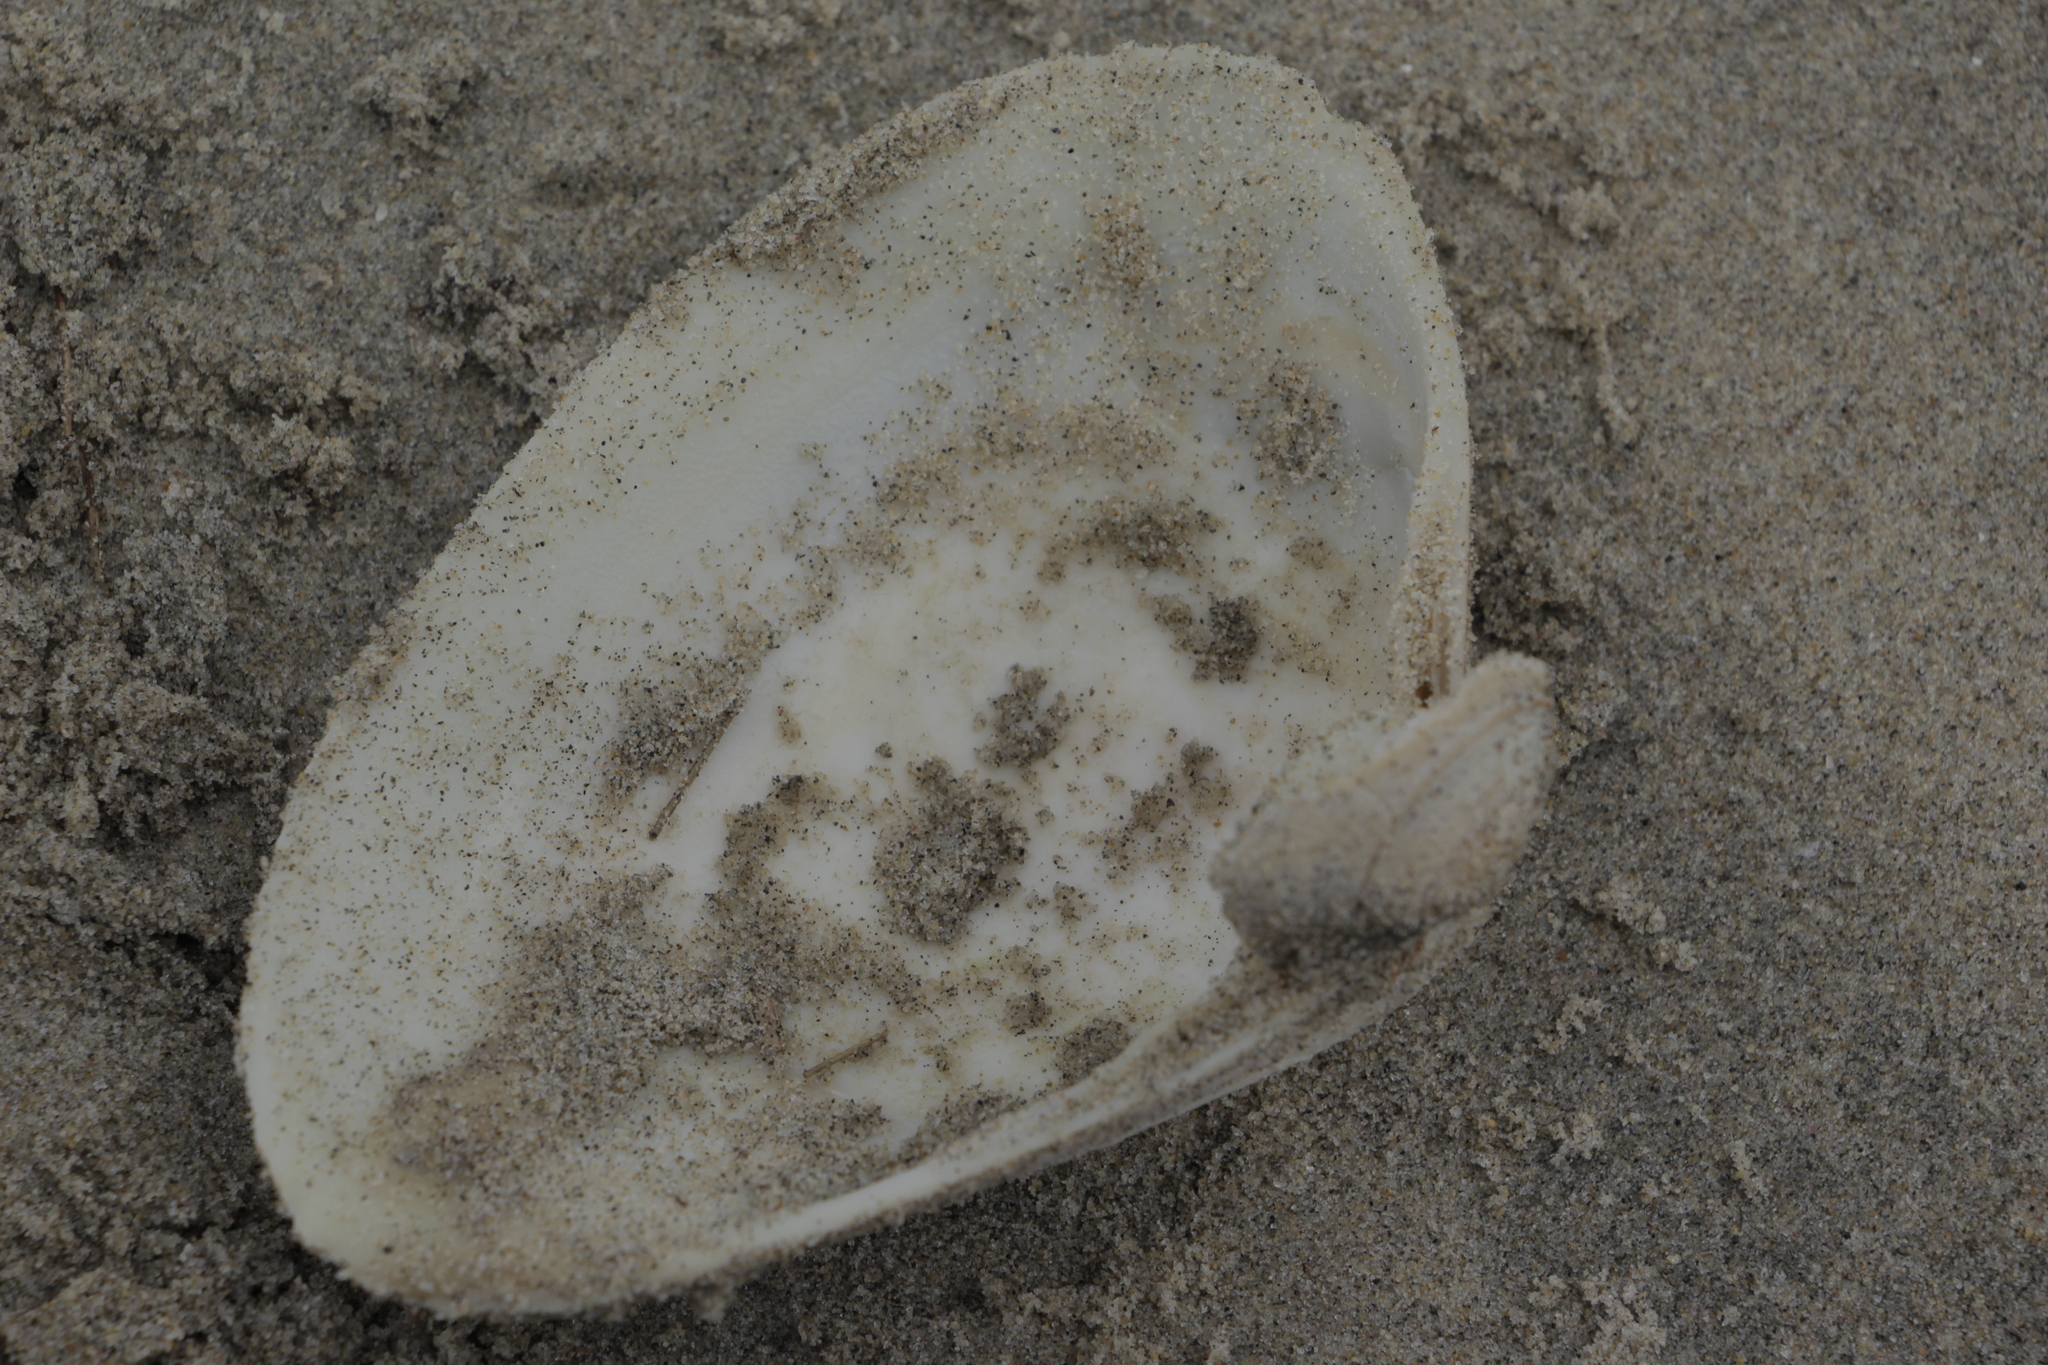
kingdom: Animalia
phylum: Mollusca
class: Bivalvia
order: Venerida
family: Mactridae
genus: Spisula
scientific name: Spisula solidissima
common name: Atlantic surf clam
